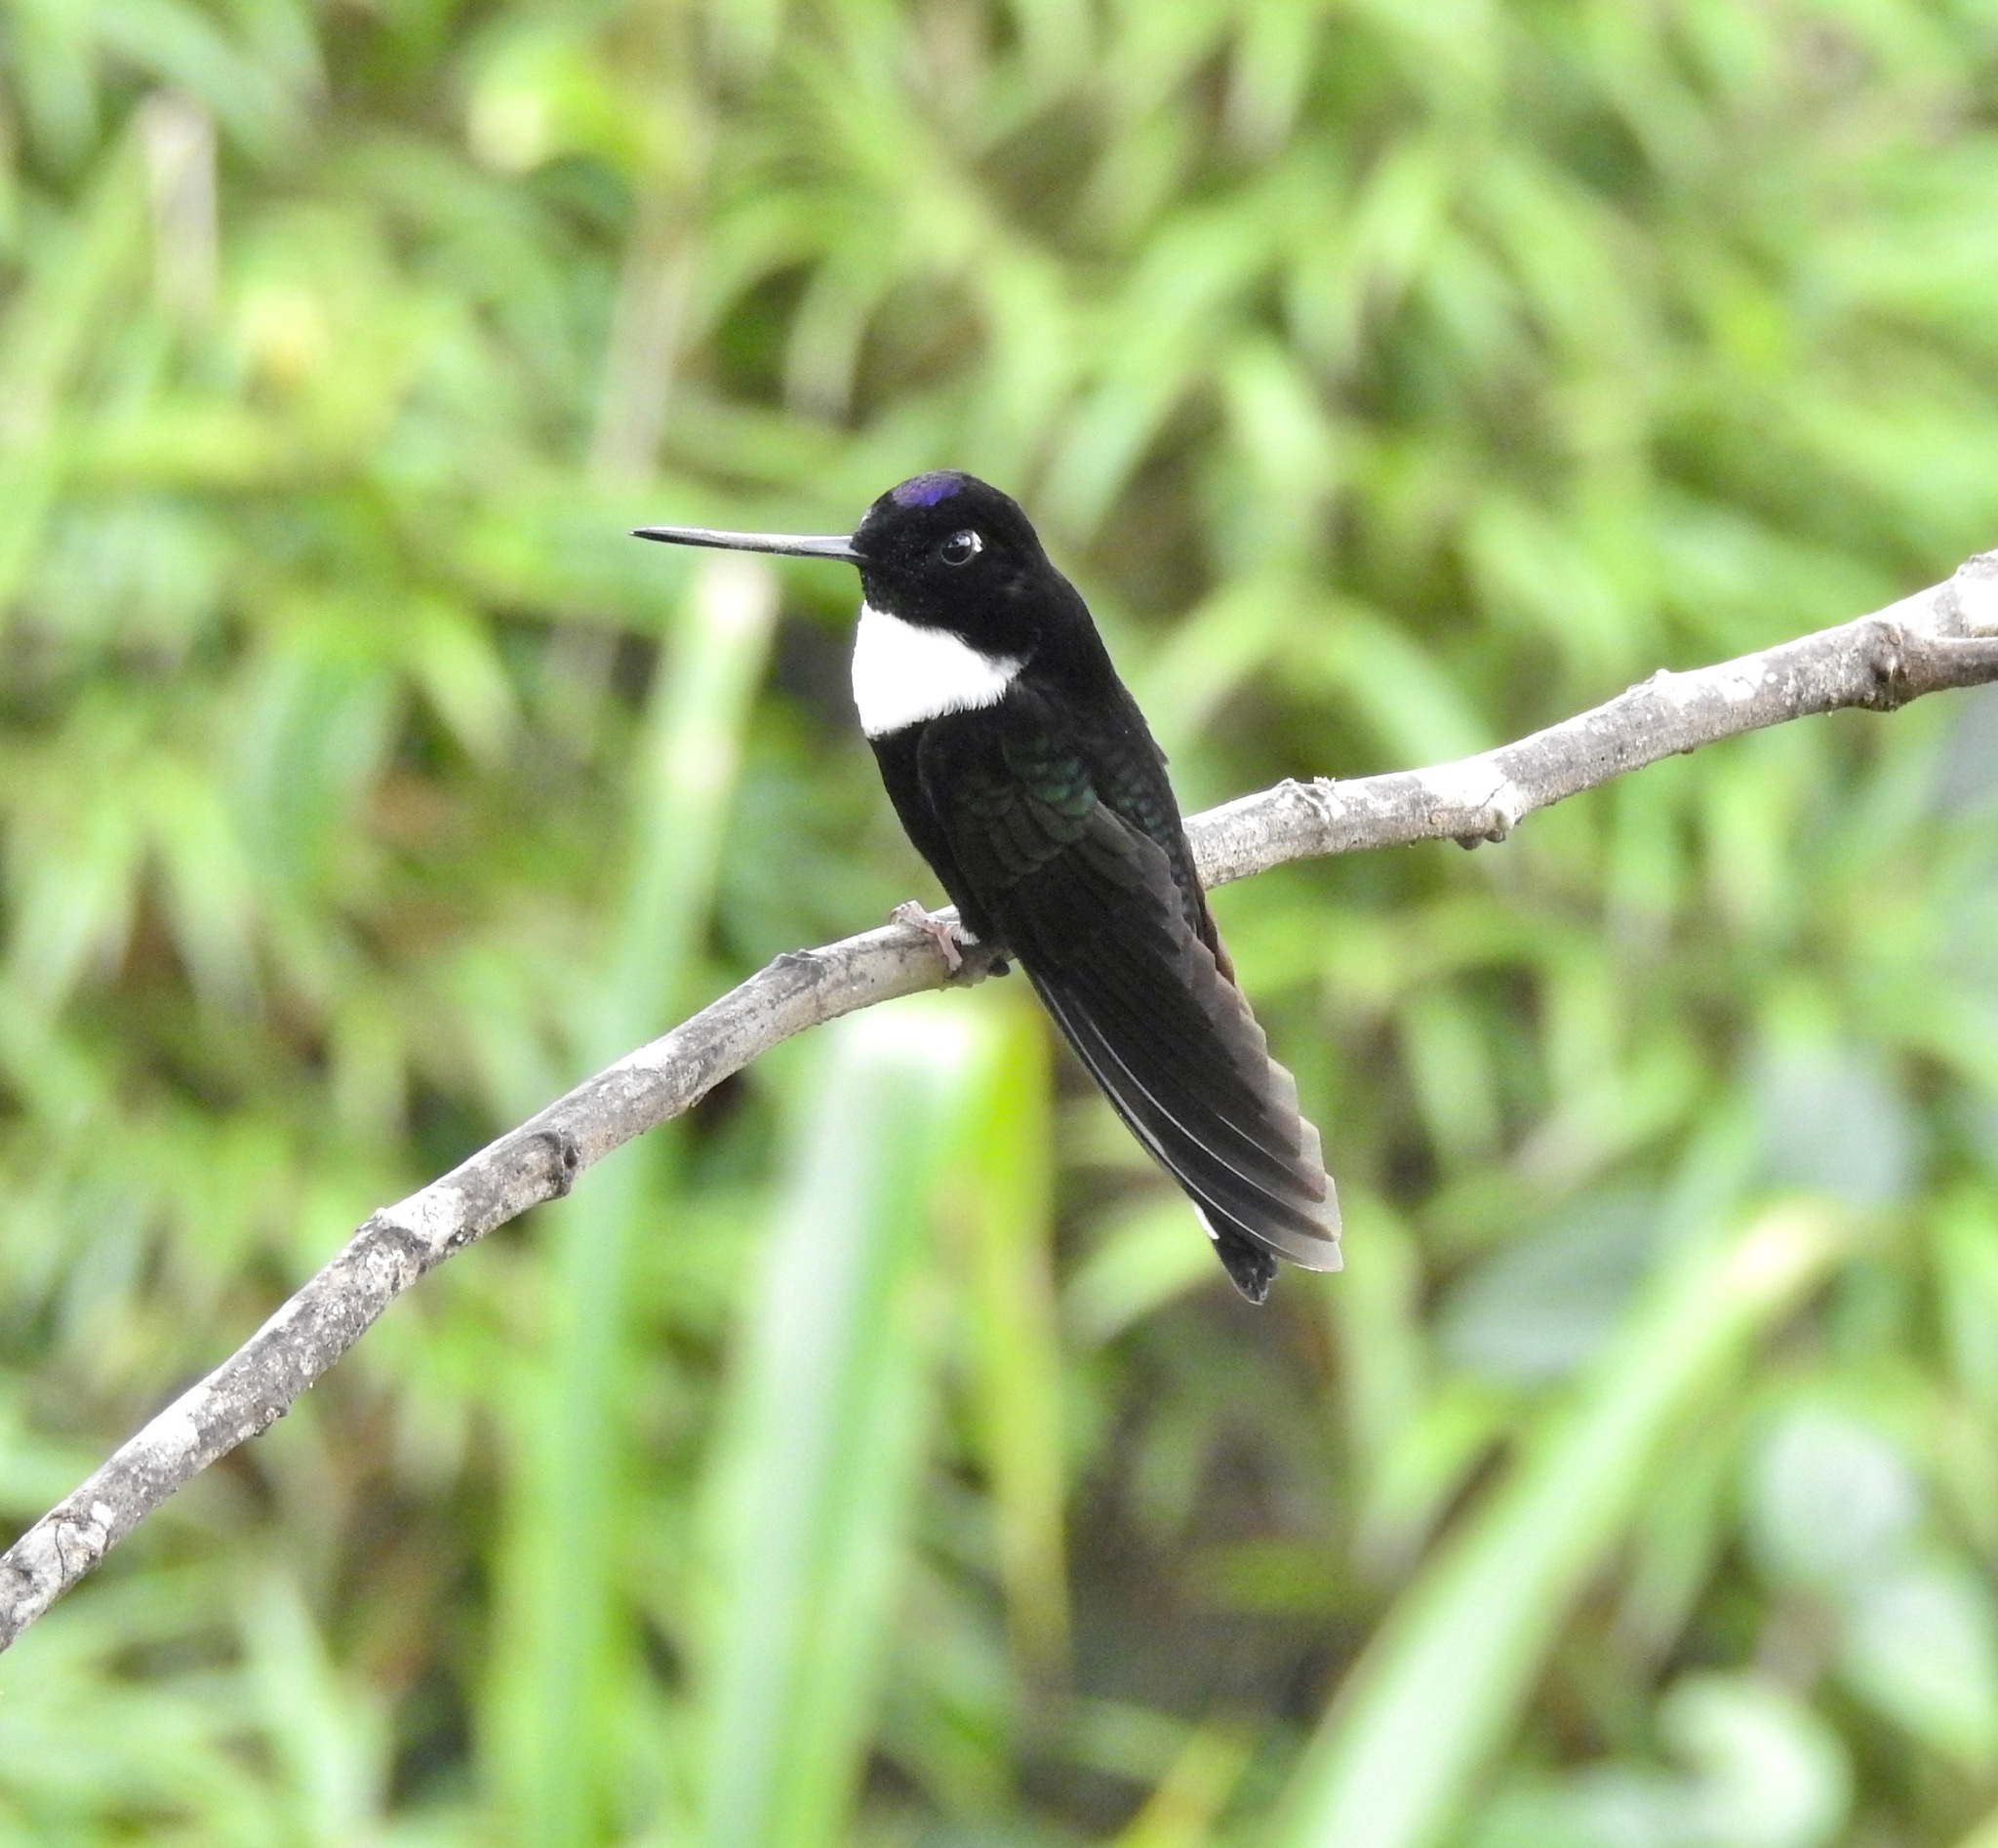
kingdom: Animalia
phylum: Chordata
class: Aves
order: Apodiformes
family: Trochilidae
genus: Coeligena
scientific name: Coeligena torquata
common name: Collared inca
